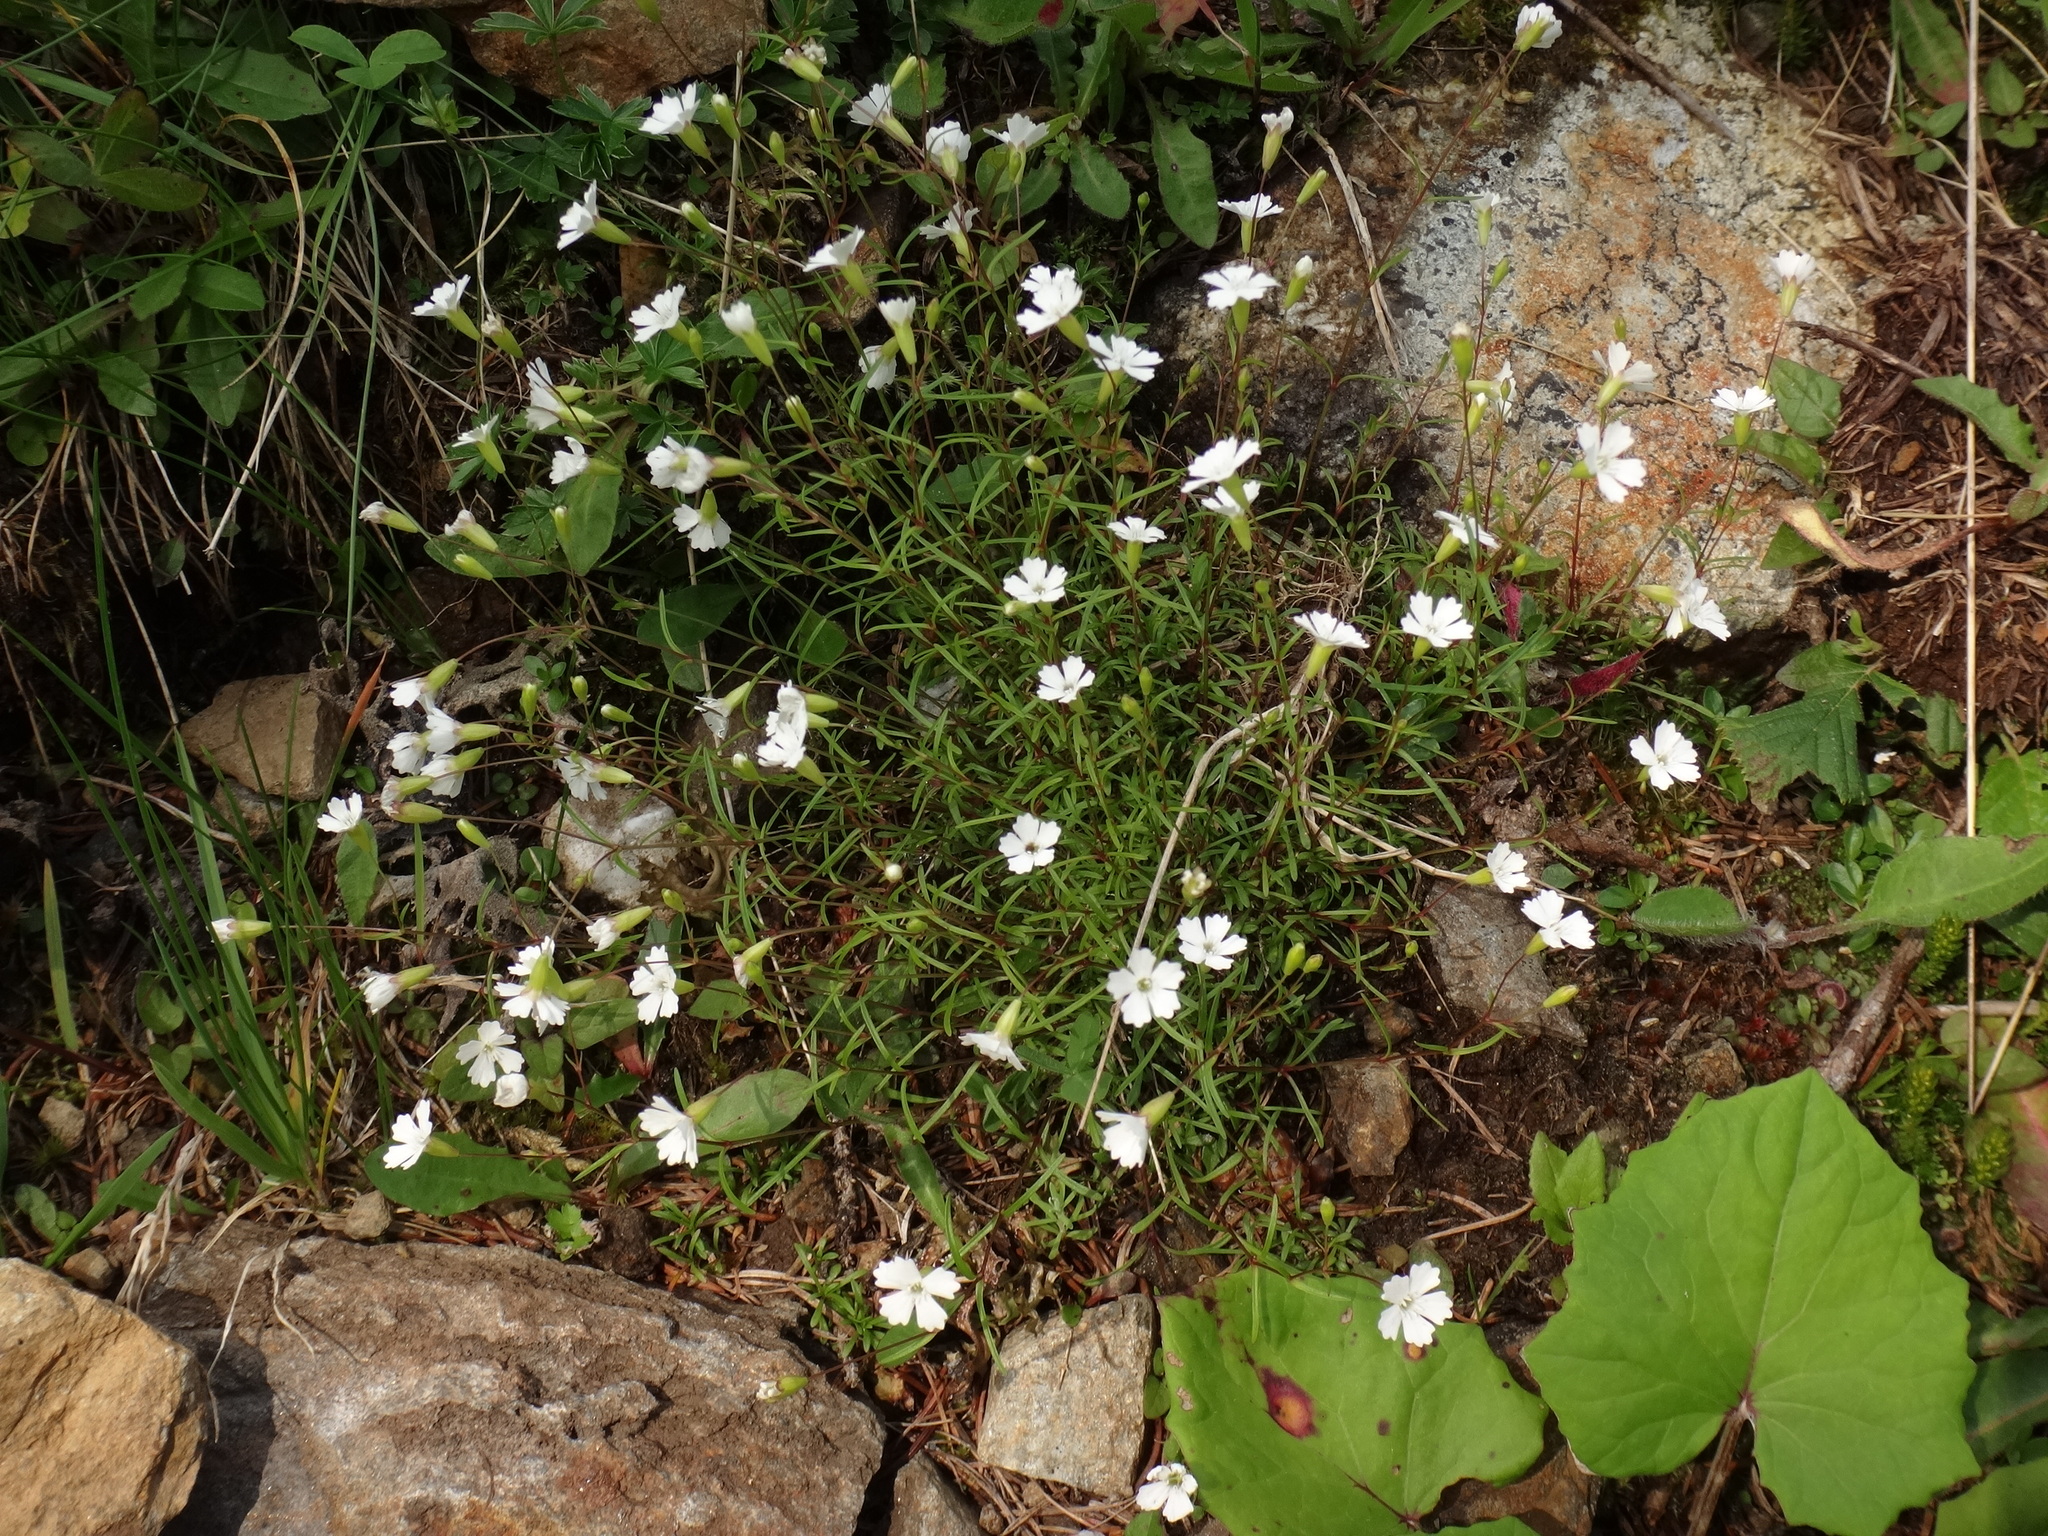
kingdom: Plantae
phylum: Tracheophyta
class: Magnoliopsida
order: Caryophyllales
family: Caryophyllaceae
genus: Heliosperma
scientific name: Heliosperma pusillum
